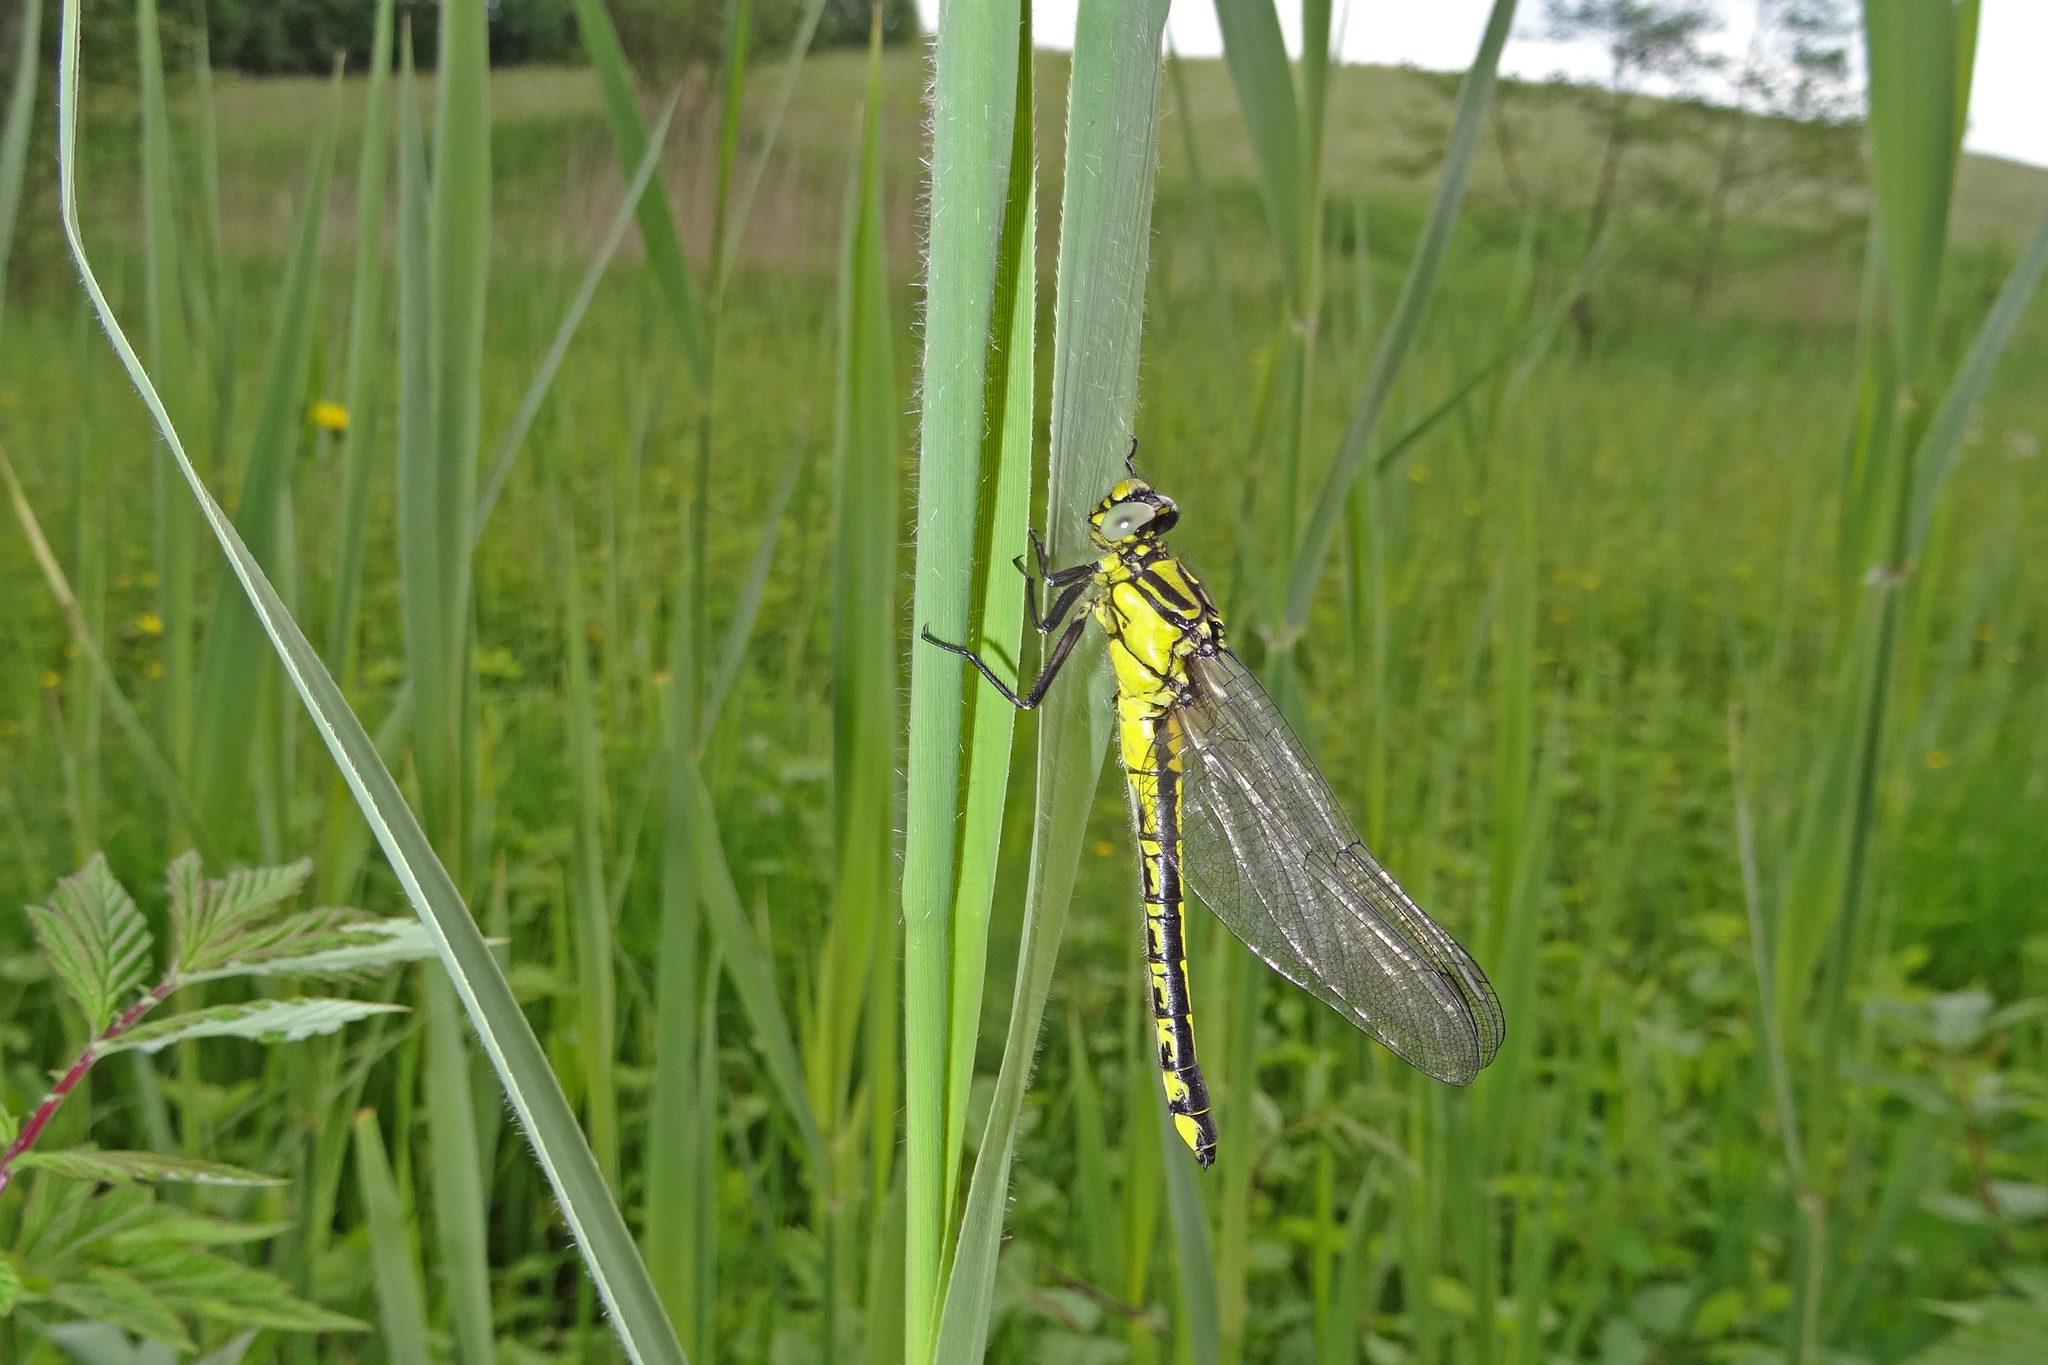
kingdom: Animalia
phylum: Arthropoda
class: Insecta
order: Odonata
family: Gomphidae
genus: Gomphus
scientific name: Gomphus vulgatissimus
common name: Club-tailed dragonfly
